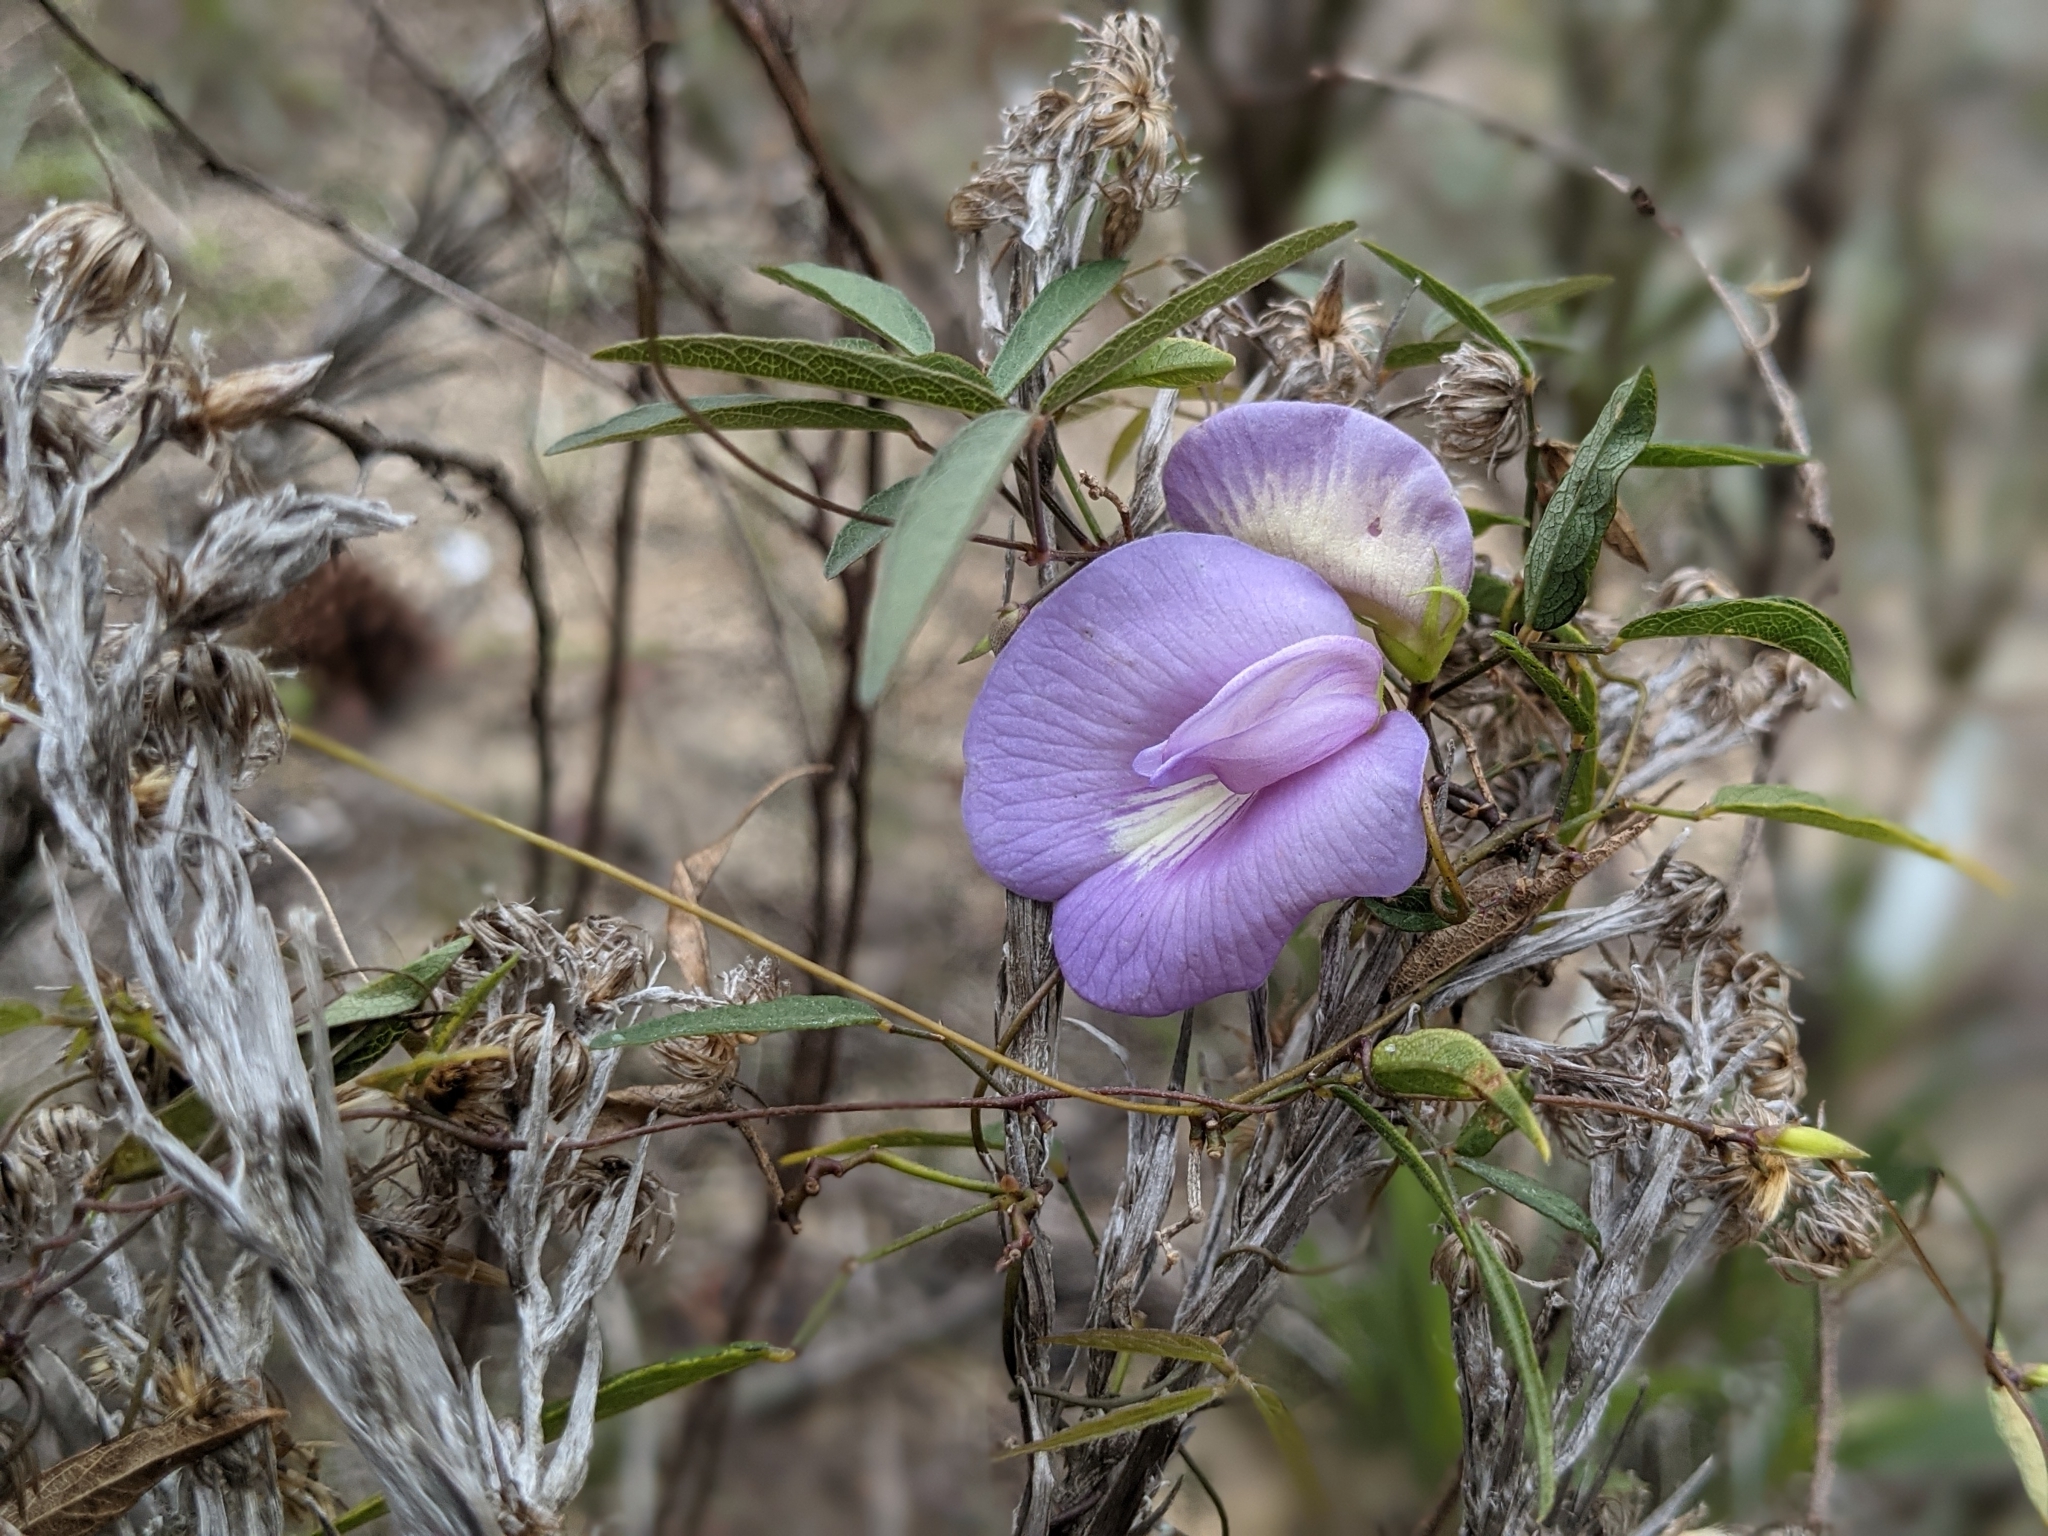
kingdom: Plantae
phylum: Tracheophyta
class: Magnoliopsida
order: Fabales
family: Fabaceae
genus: Centrosema
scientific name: Centrosema virginianum
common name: Butterfly-pea
